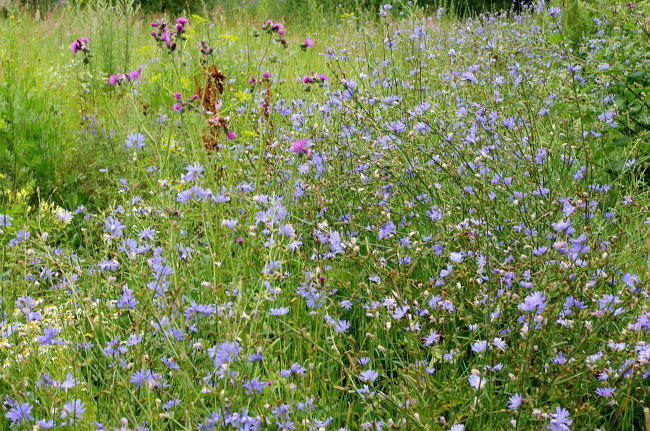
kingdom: Plantae
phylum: Tracheophyta
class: Magnoliopsida
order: Asterales
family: Asteraceae
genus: Cichorium
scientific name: Cichorium intybus
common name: Chicory
